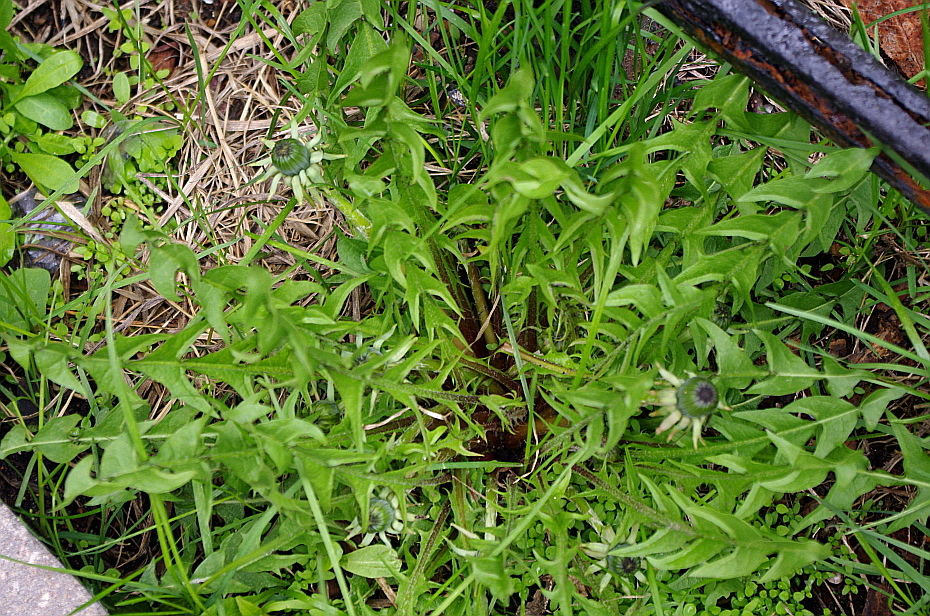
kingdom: Plantae
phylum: Tracheophyta
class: Magnoliopsida
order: Asterales
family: Asteraceae
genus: Taraxacum
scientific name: Taraxacum officinale
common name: Common dandelion
